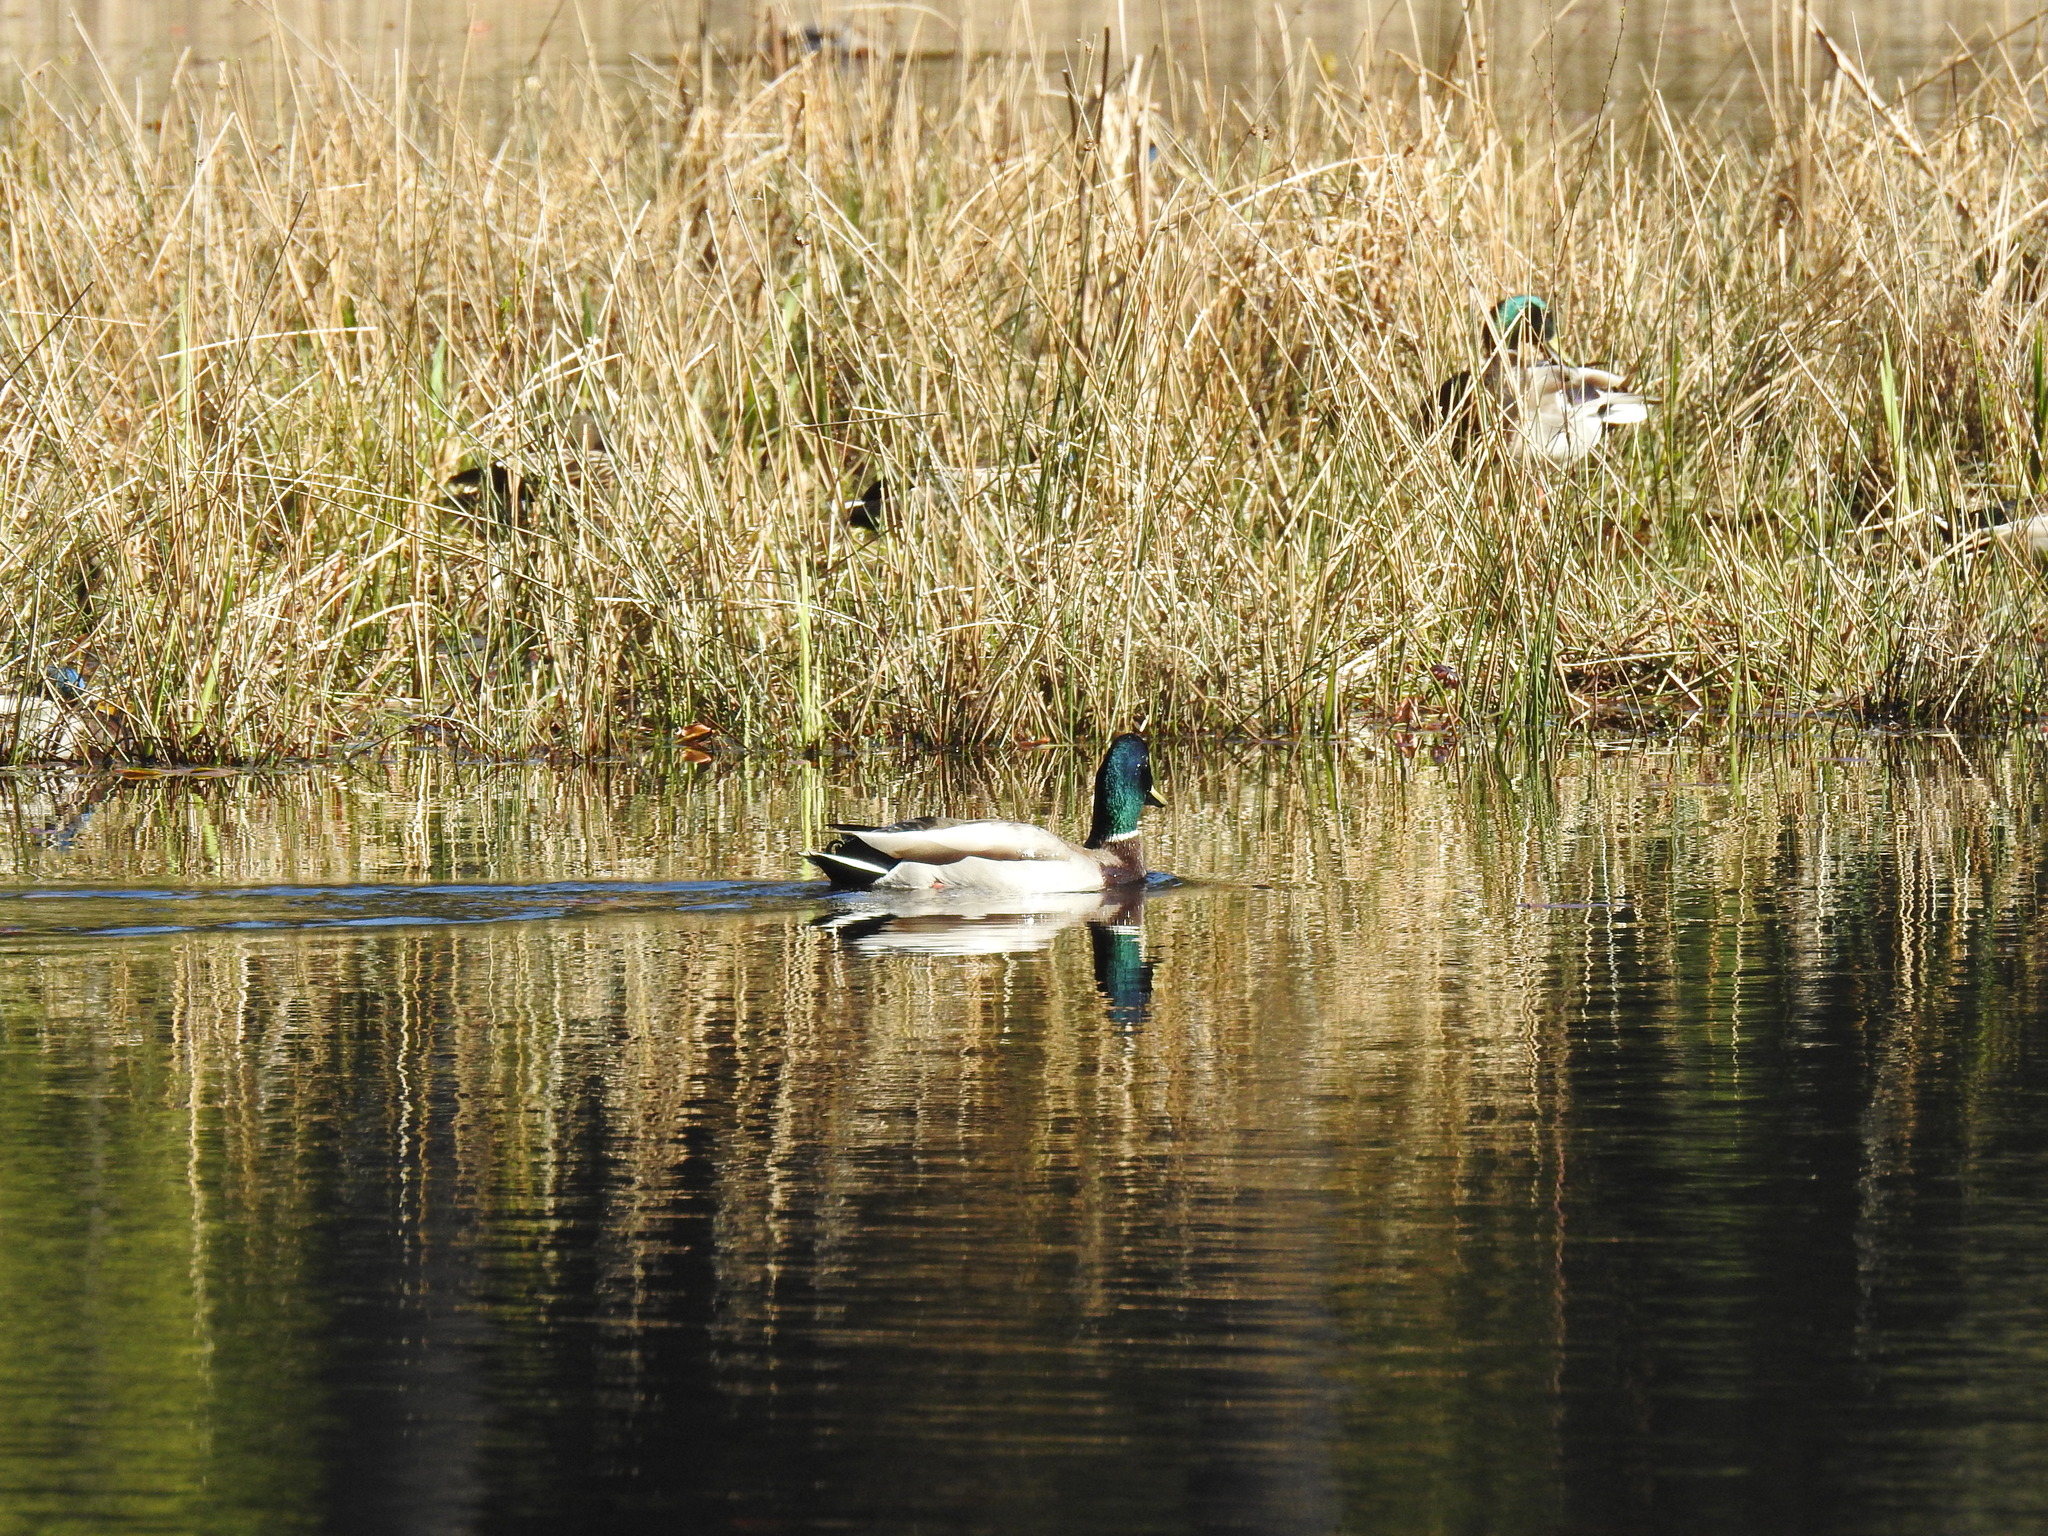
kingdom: Animalia
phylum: Chordata
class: Aves
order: Anseriformes
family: Anatidae
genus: Anas
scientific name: Anas platyrhynchos
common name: Mallard
